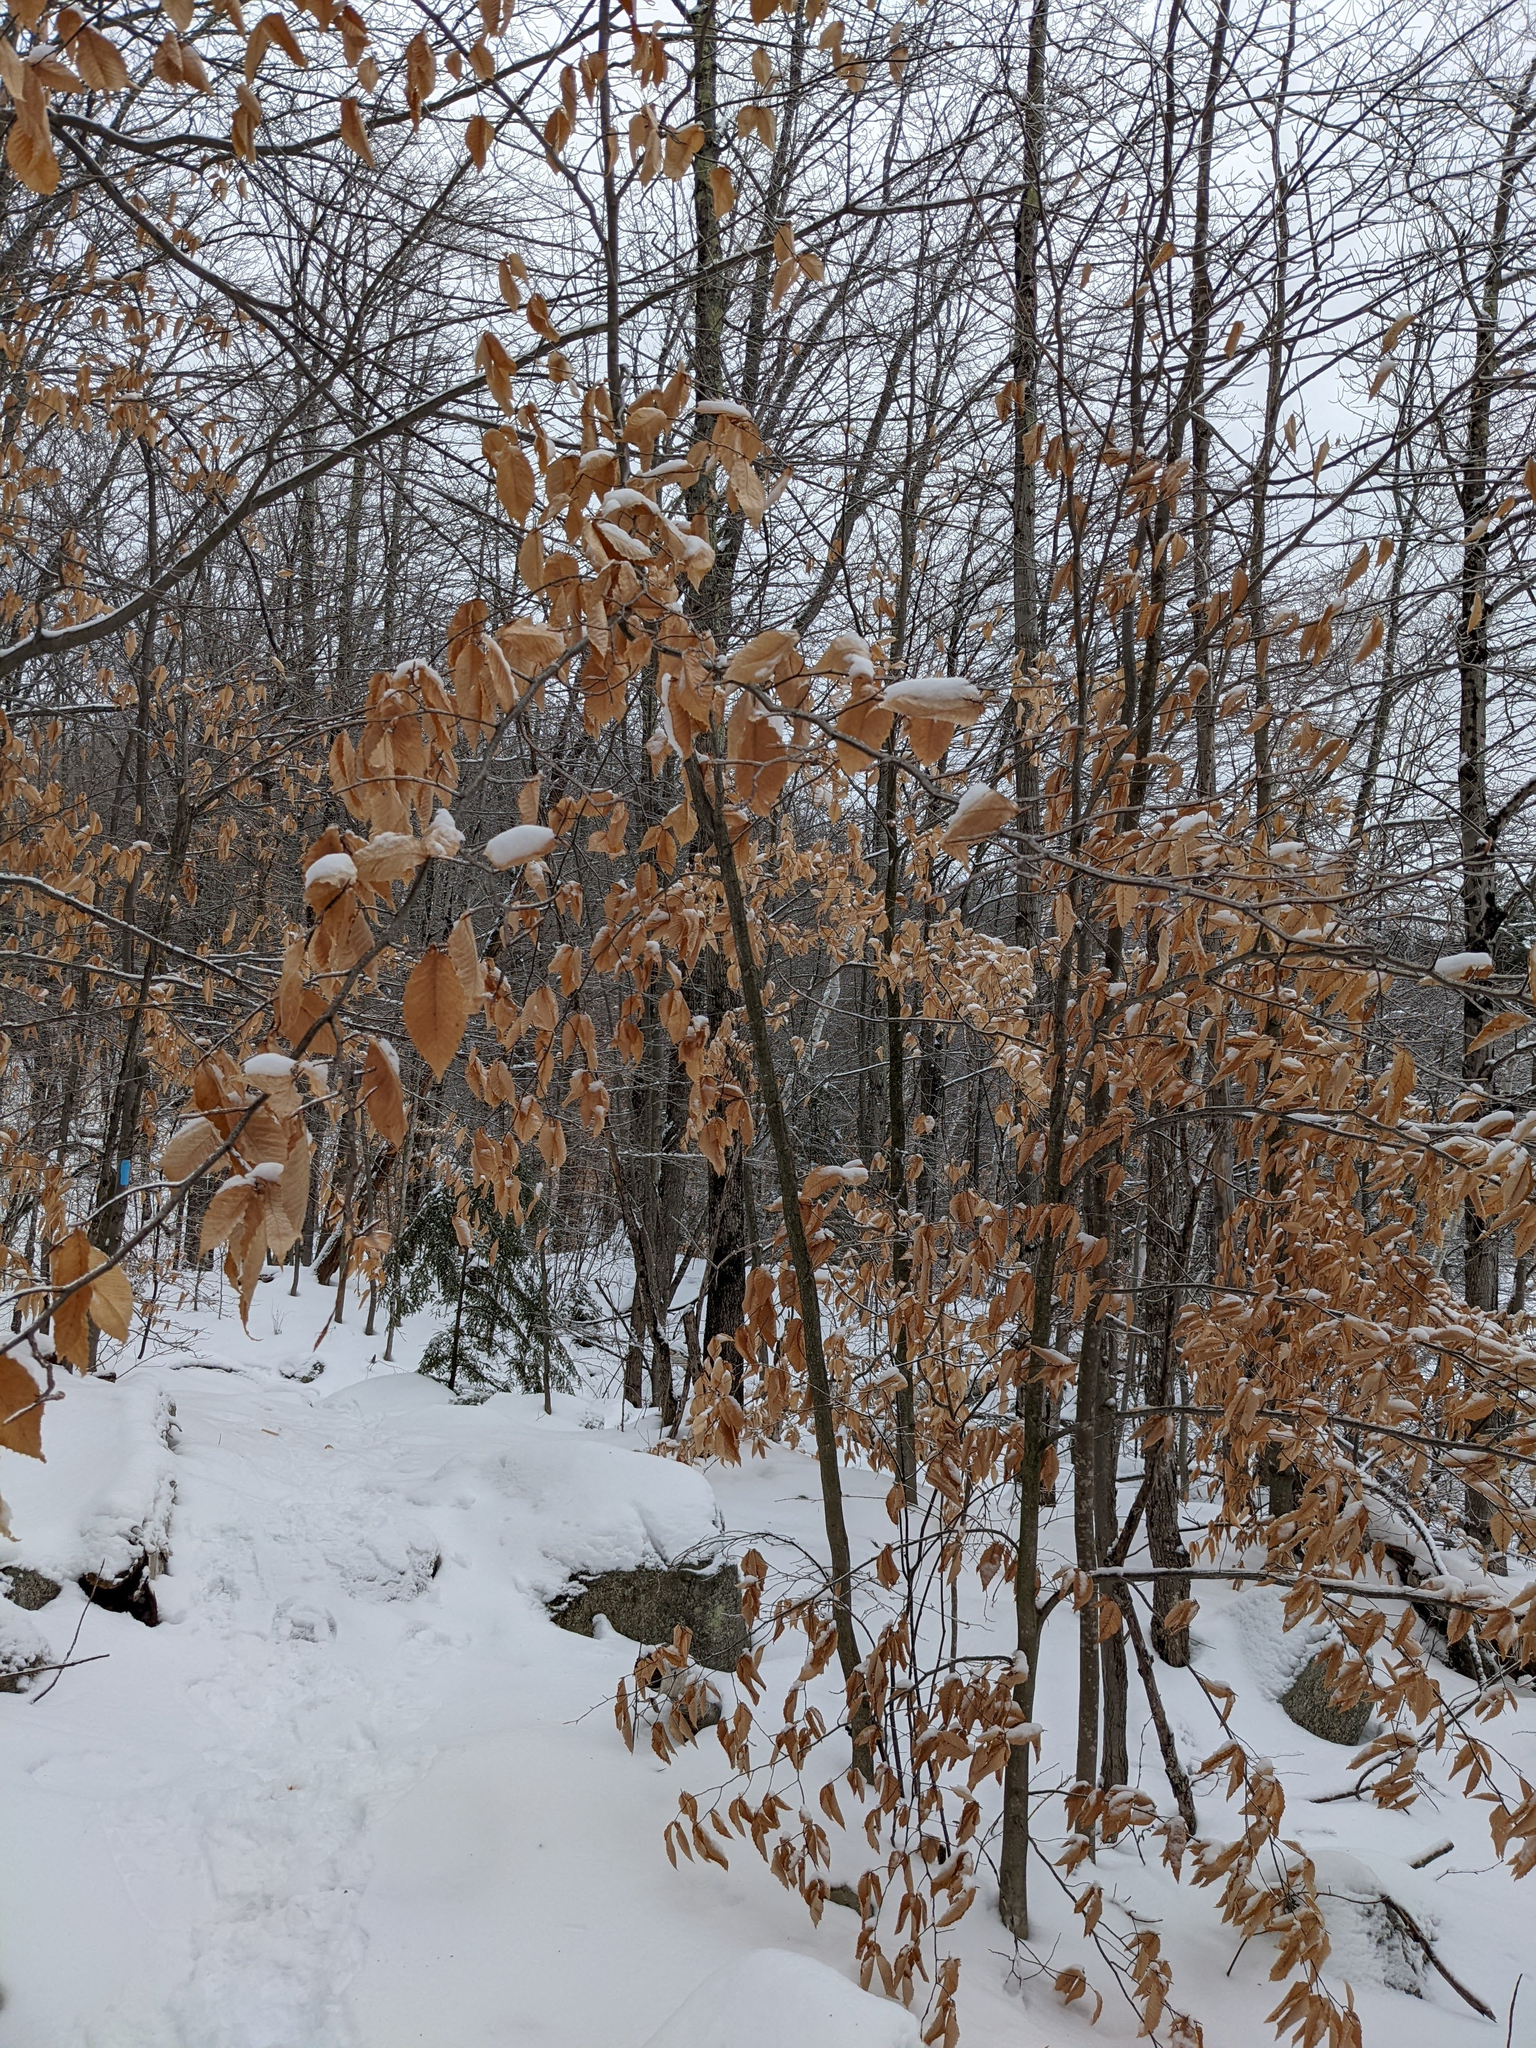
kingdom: Plantae
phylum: Tracheophyta
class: Magnoliopsida
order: Fagales
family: Fagaceae
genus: Fagus
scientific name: Fagus grandifolia
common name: American beech
